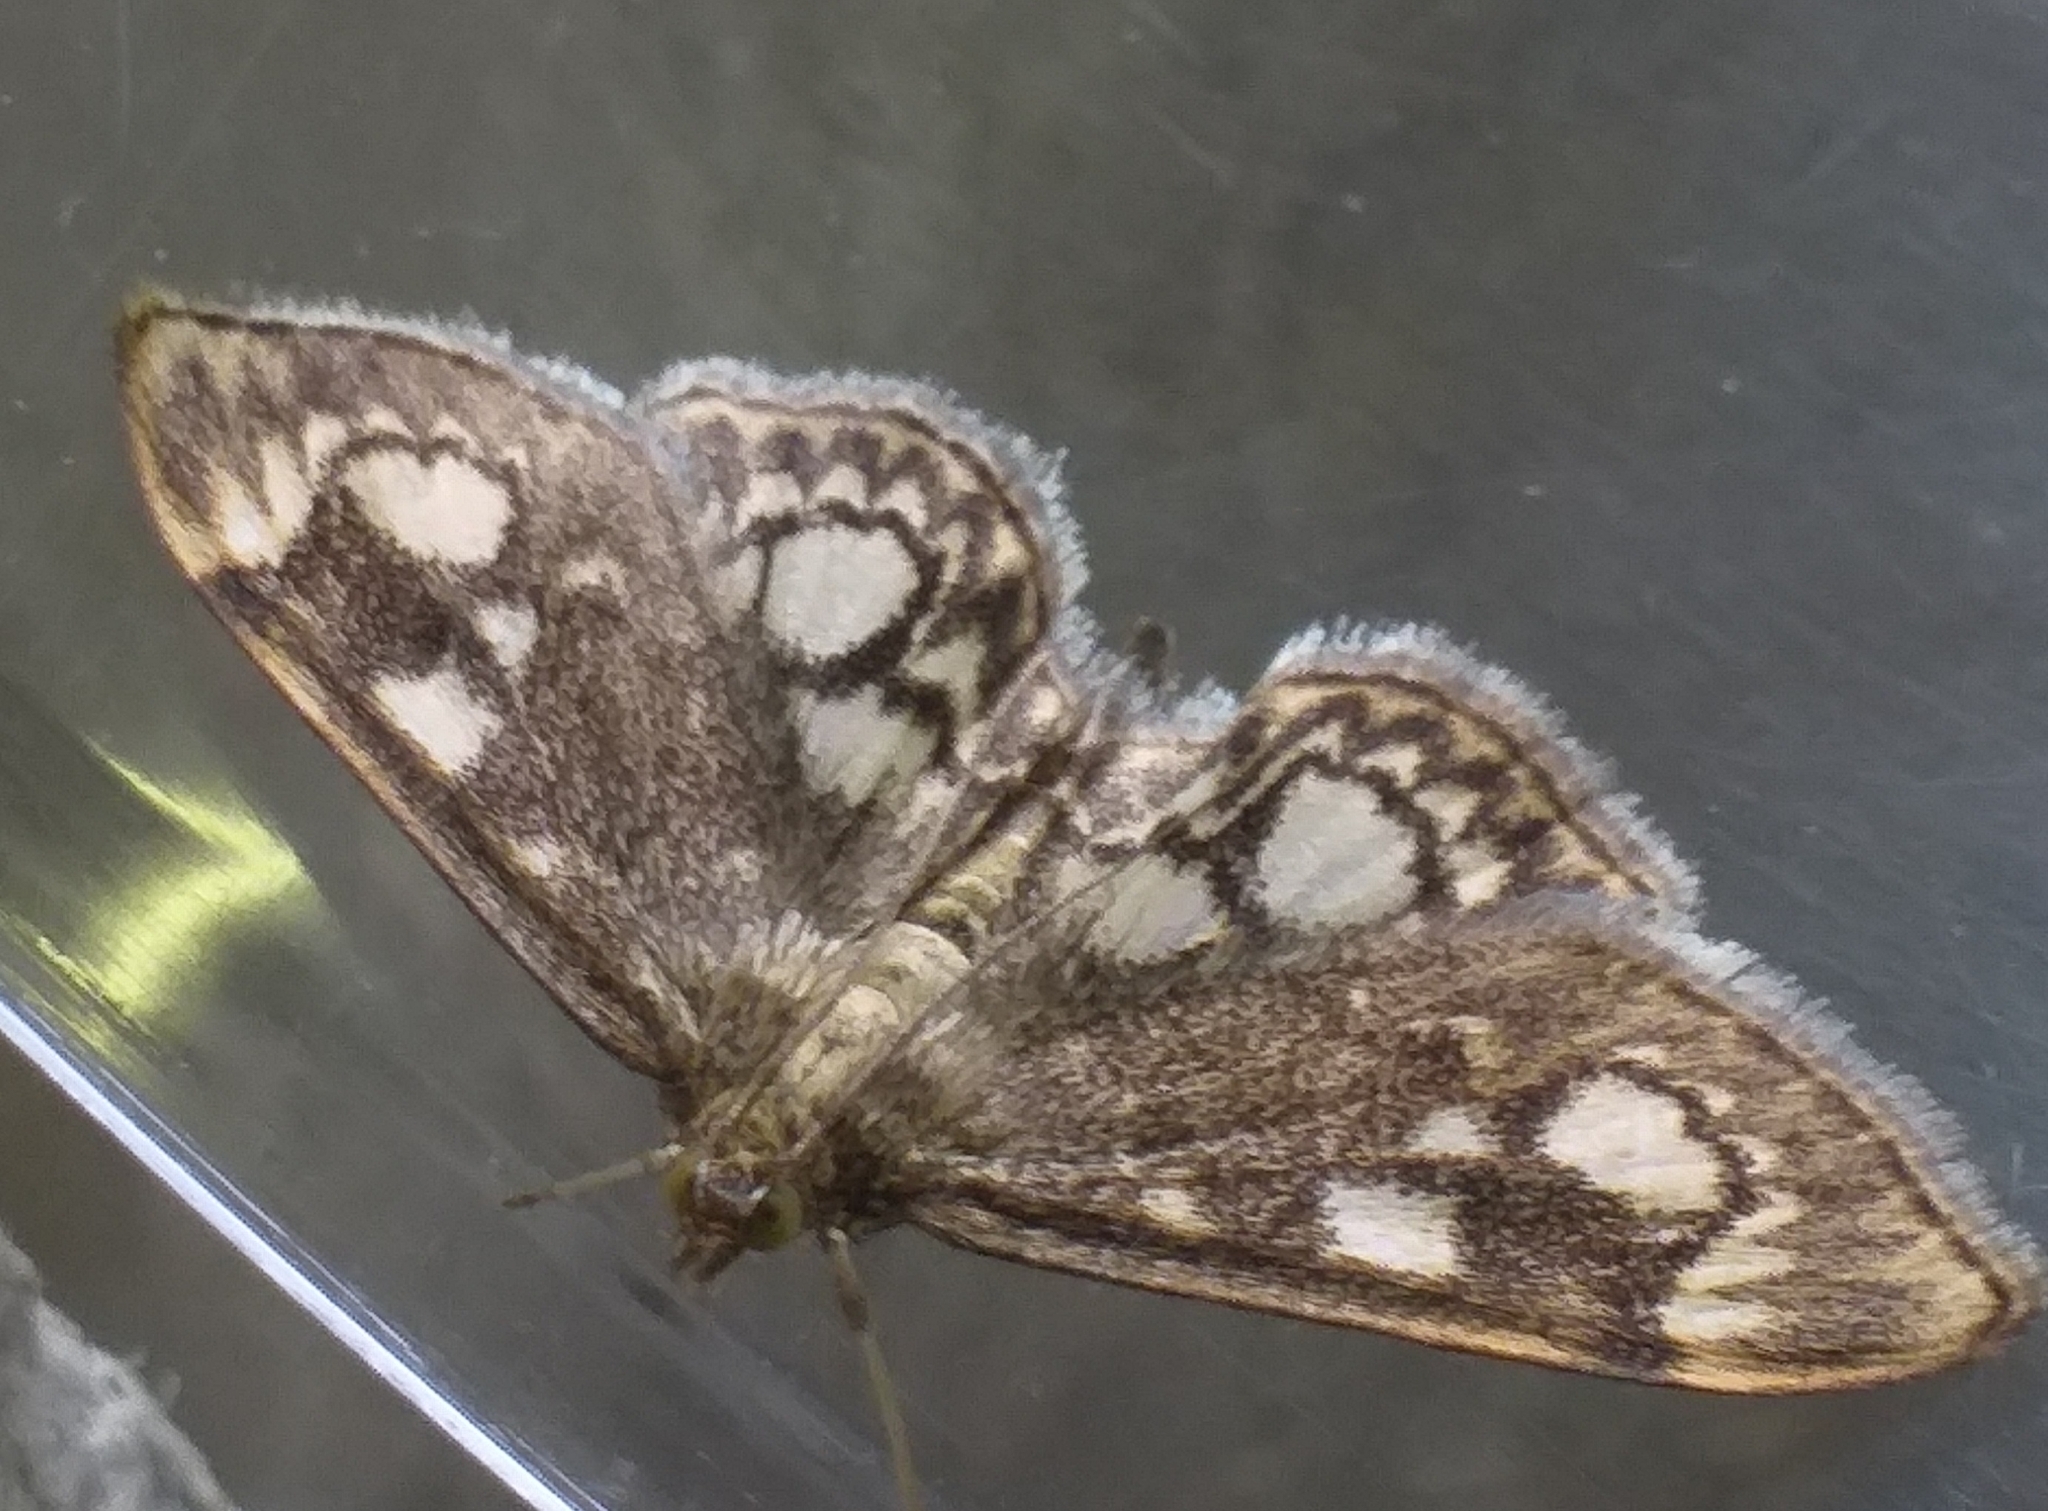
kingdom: Animalia
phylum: Arthropoda
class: Insecta
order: Lepidoptera
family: Crambidae
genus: Anania
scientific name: Anania coronata
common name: Elder pearl
